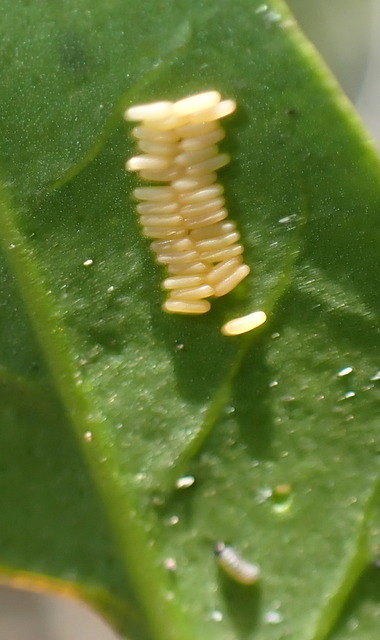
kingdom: Animalia
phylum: Arthropoda
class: Insecta
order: Coleoptera
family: Chrysomelidae
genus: Agasicles
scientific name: Agasicles hygrophila
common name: Alligatorweed flea beetle
